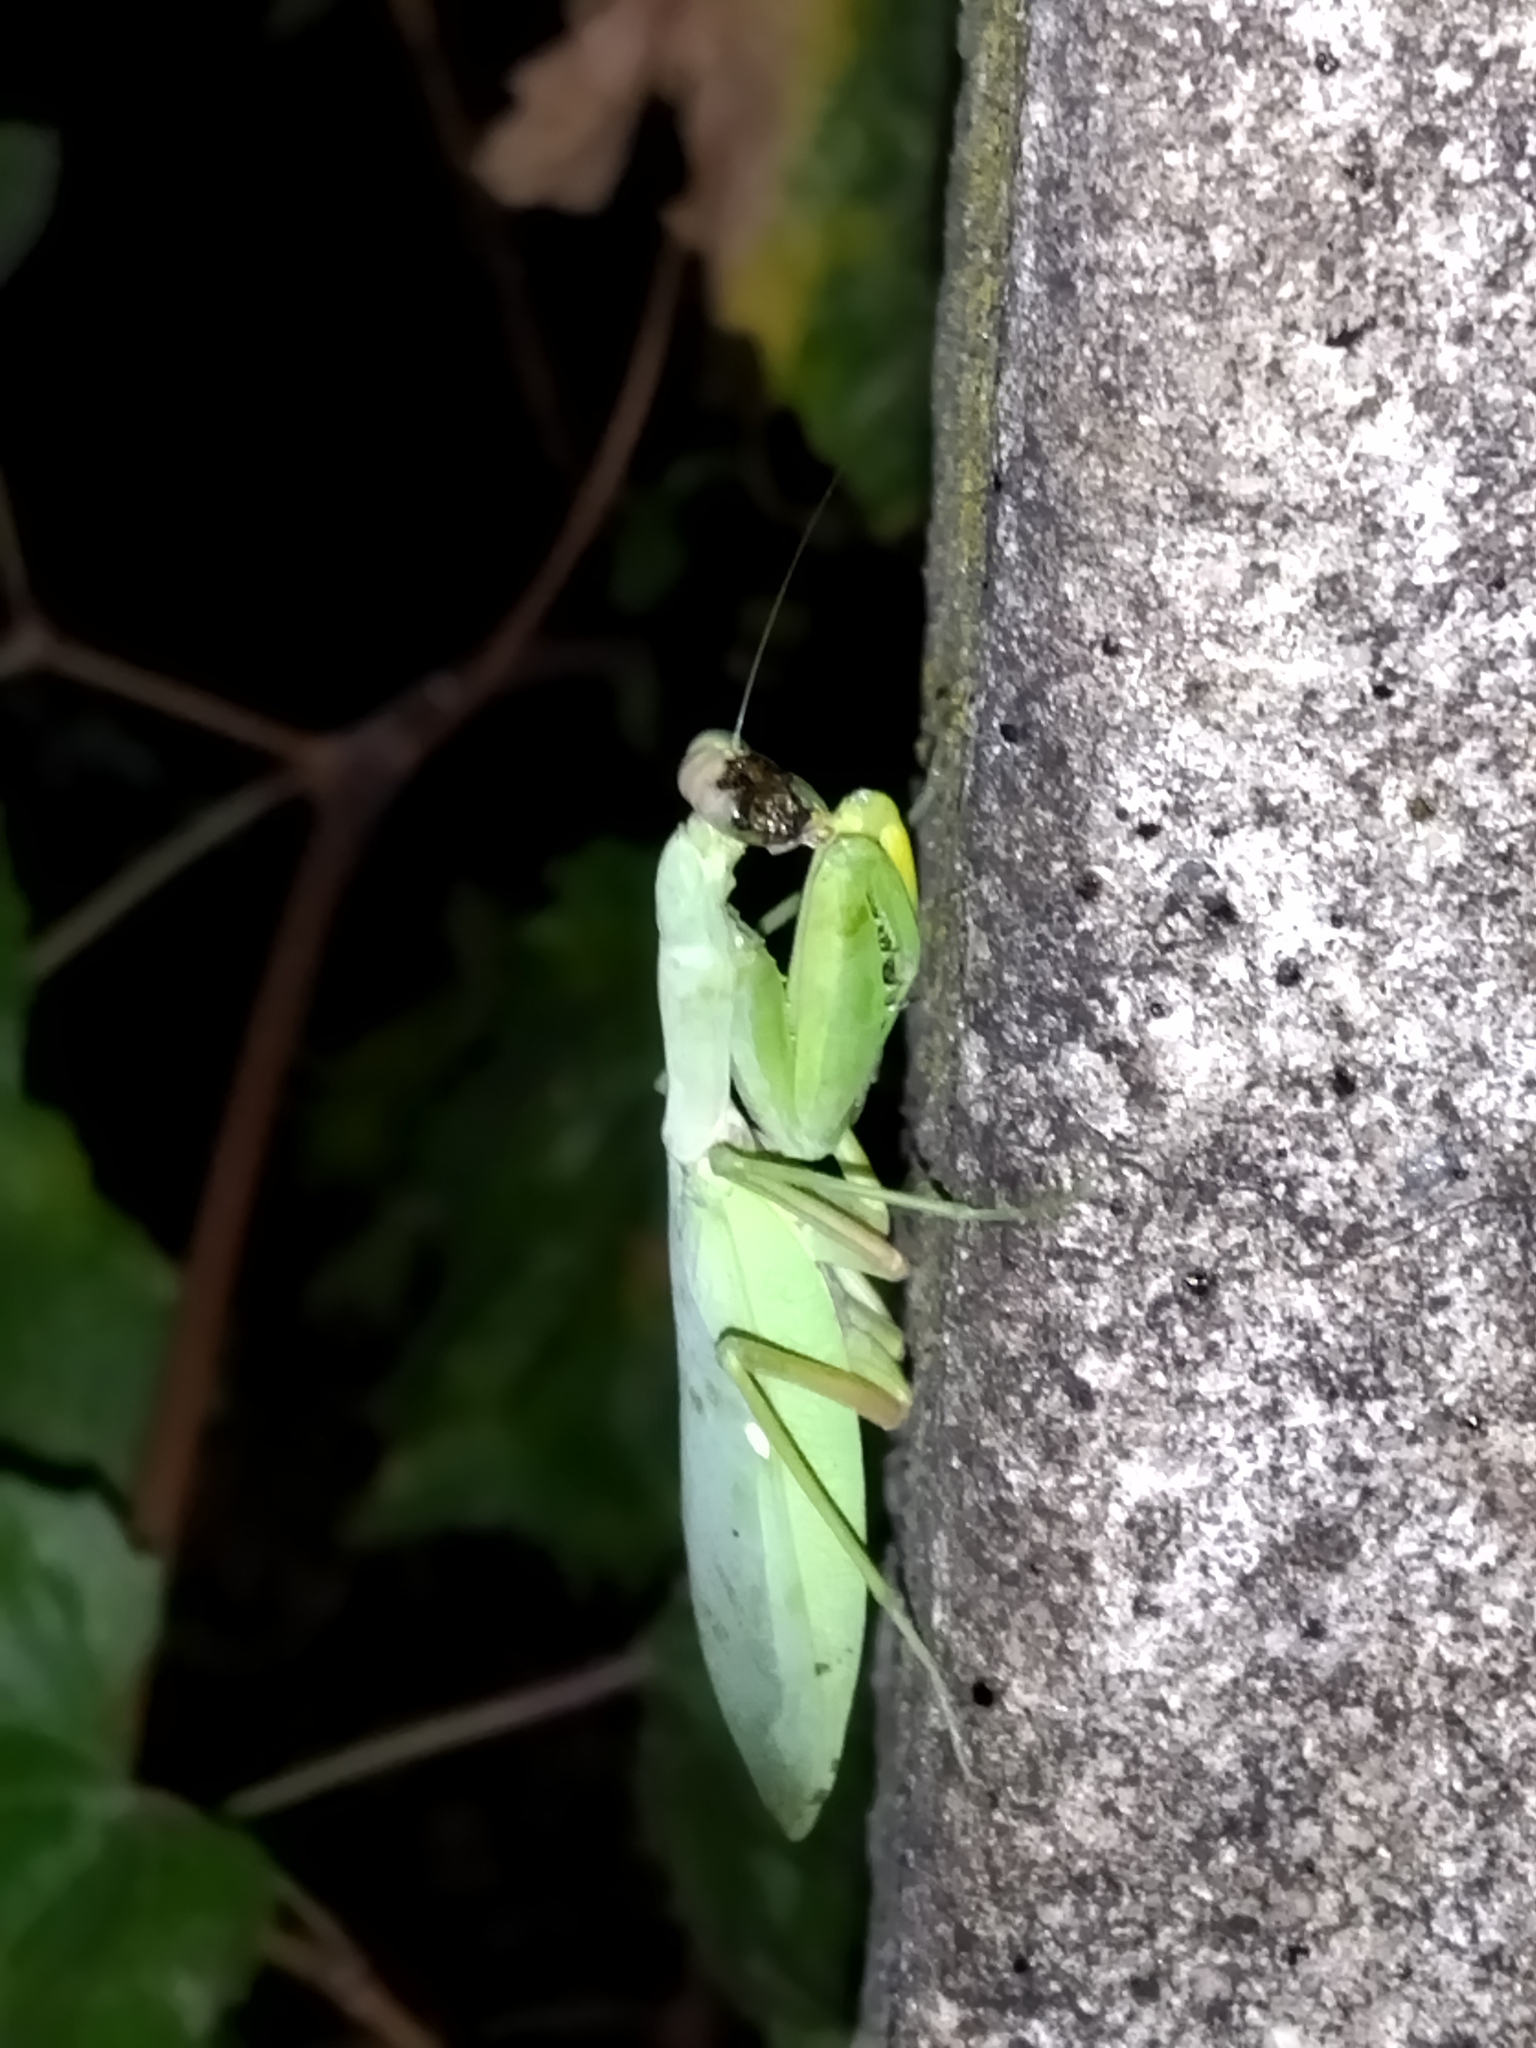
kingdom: Animalia
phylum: Arthropoda
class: Insecta
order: Mantodea
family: Mantidae
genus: Hierodula
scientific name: Hierodula transcaucasica
